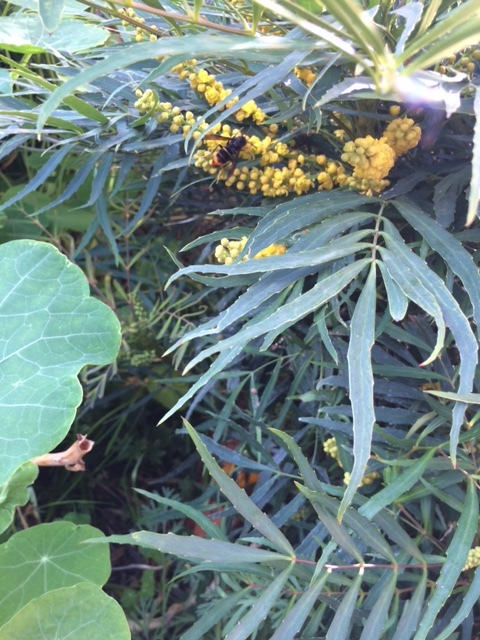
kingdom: Animalia
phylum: Arthropoda
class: Insecta
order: Hymenoptera
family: Vespidae
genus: Vespa
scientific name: Vespa velutina
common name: Asian hornet
